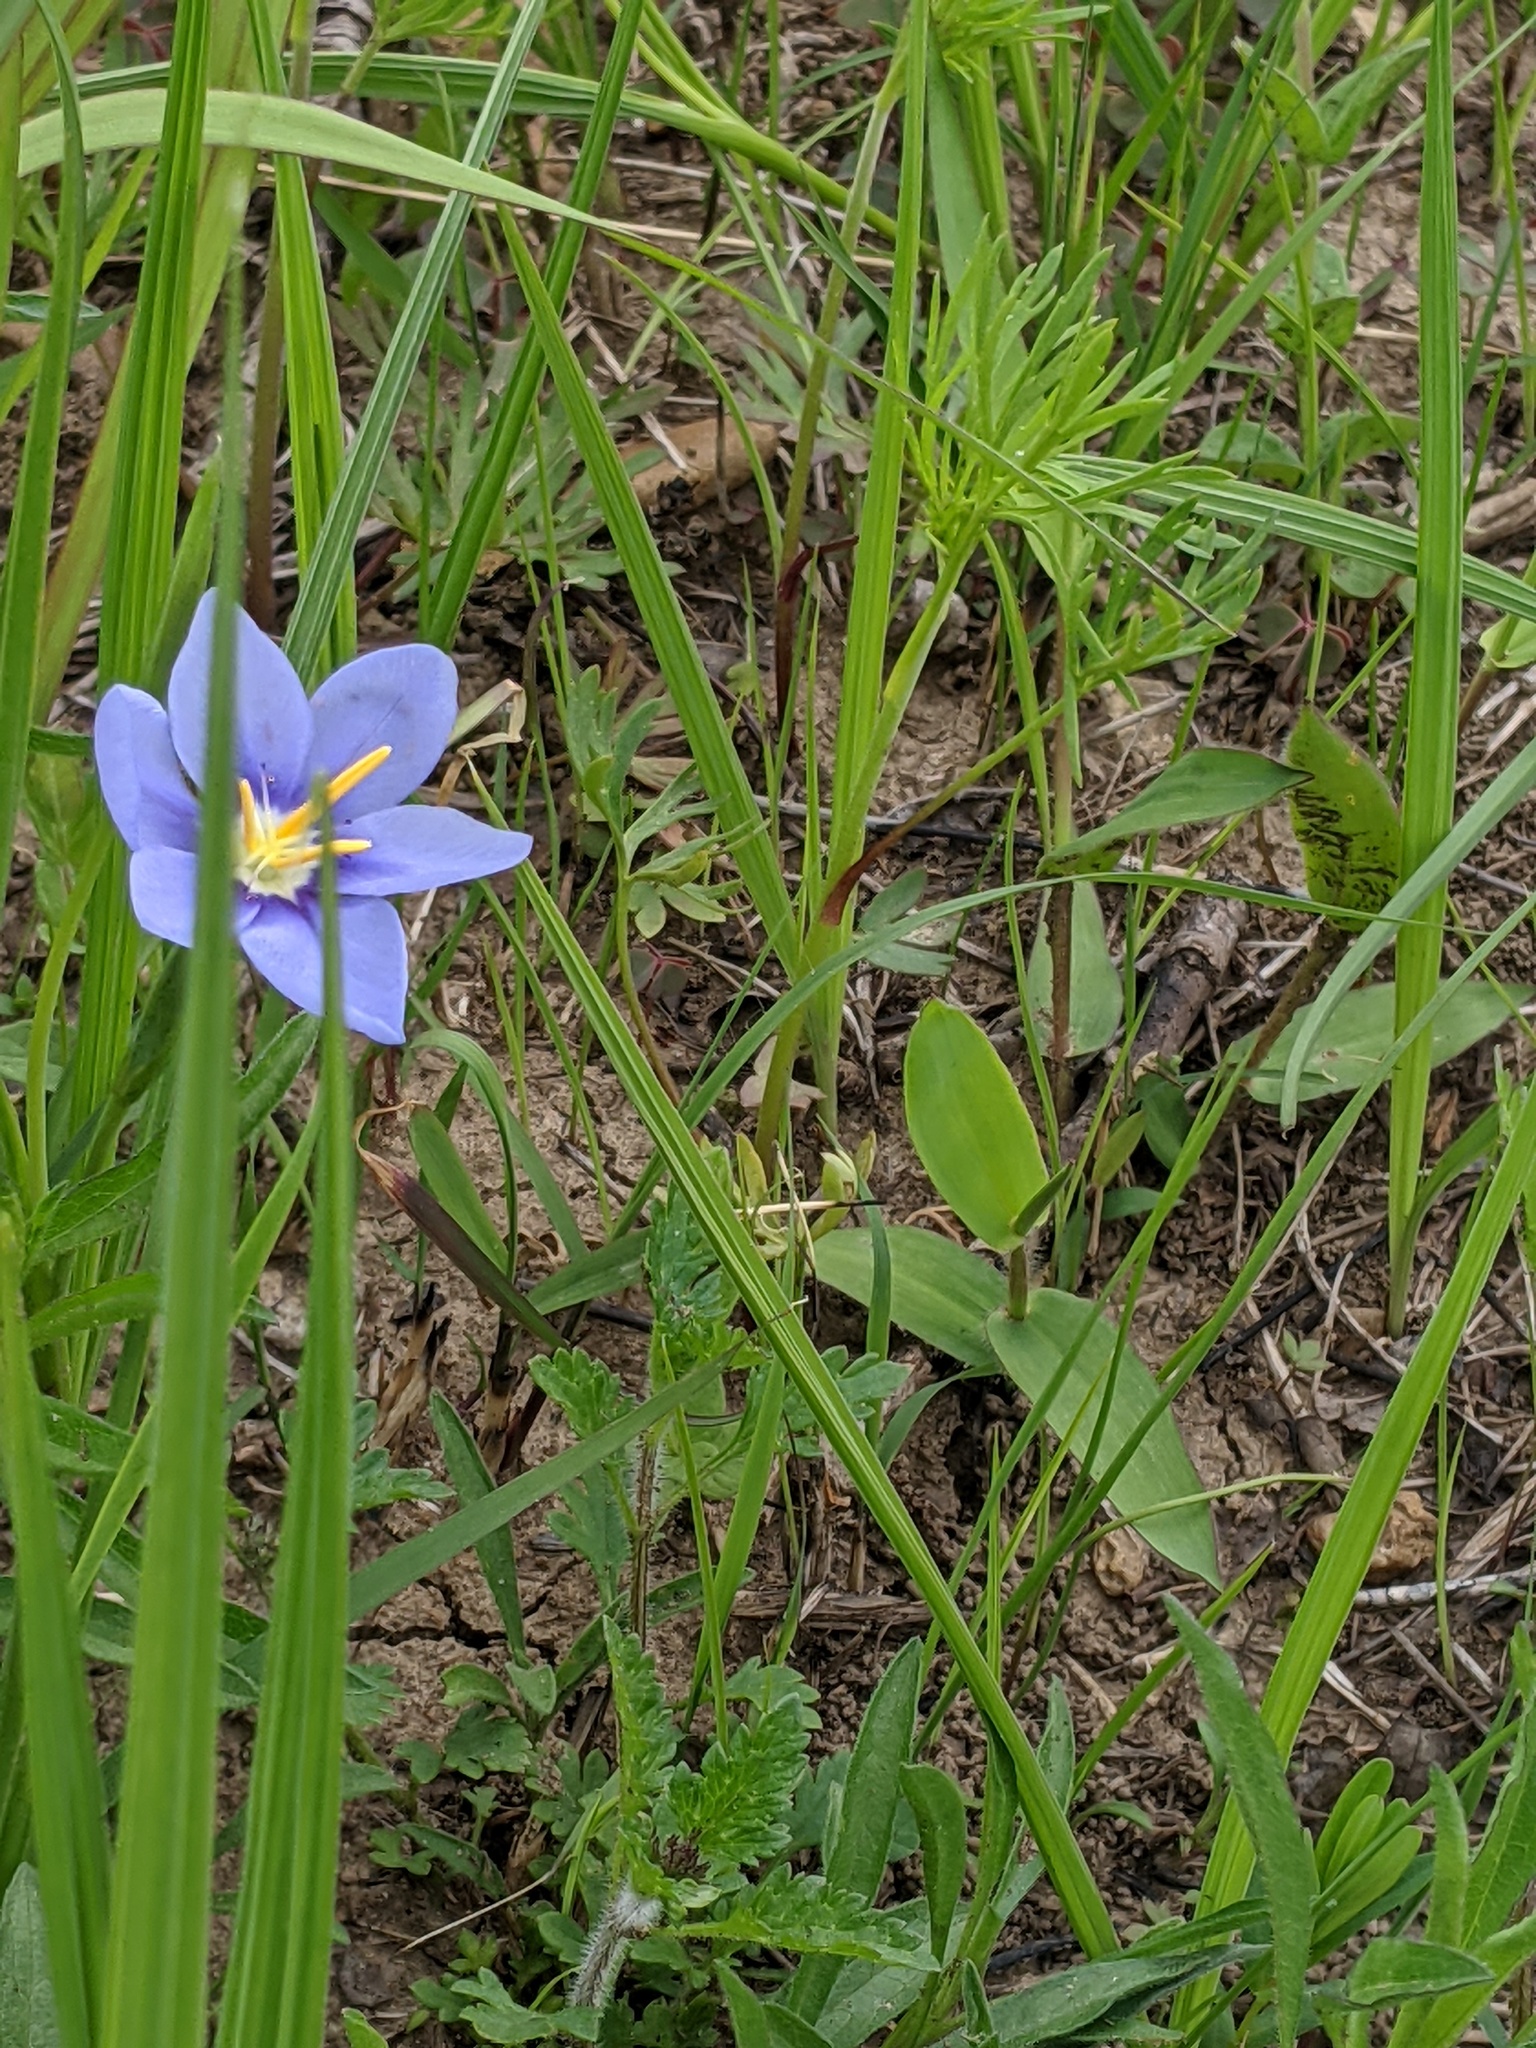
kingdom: Plantae
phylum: Tracheophyta
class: Liliopsida
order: Asparagales
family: Iridaceae
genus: Nemastylis
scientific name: Nemastylis geminiflora
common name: Prairie celestial
